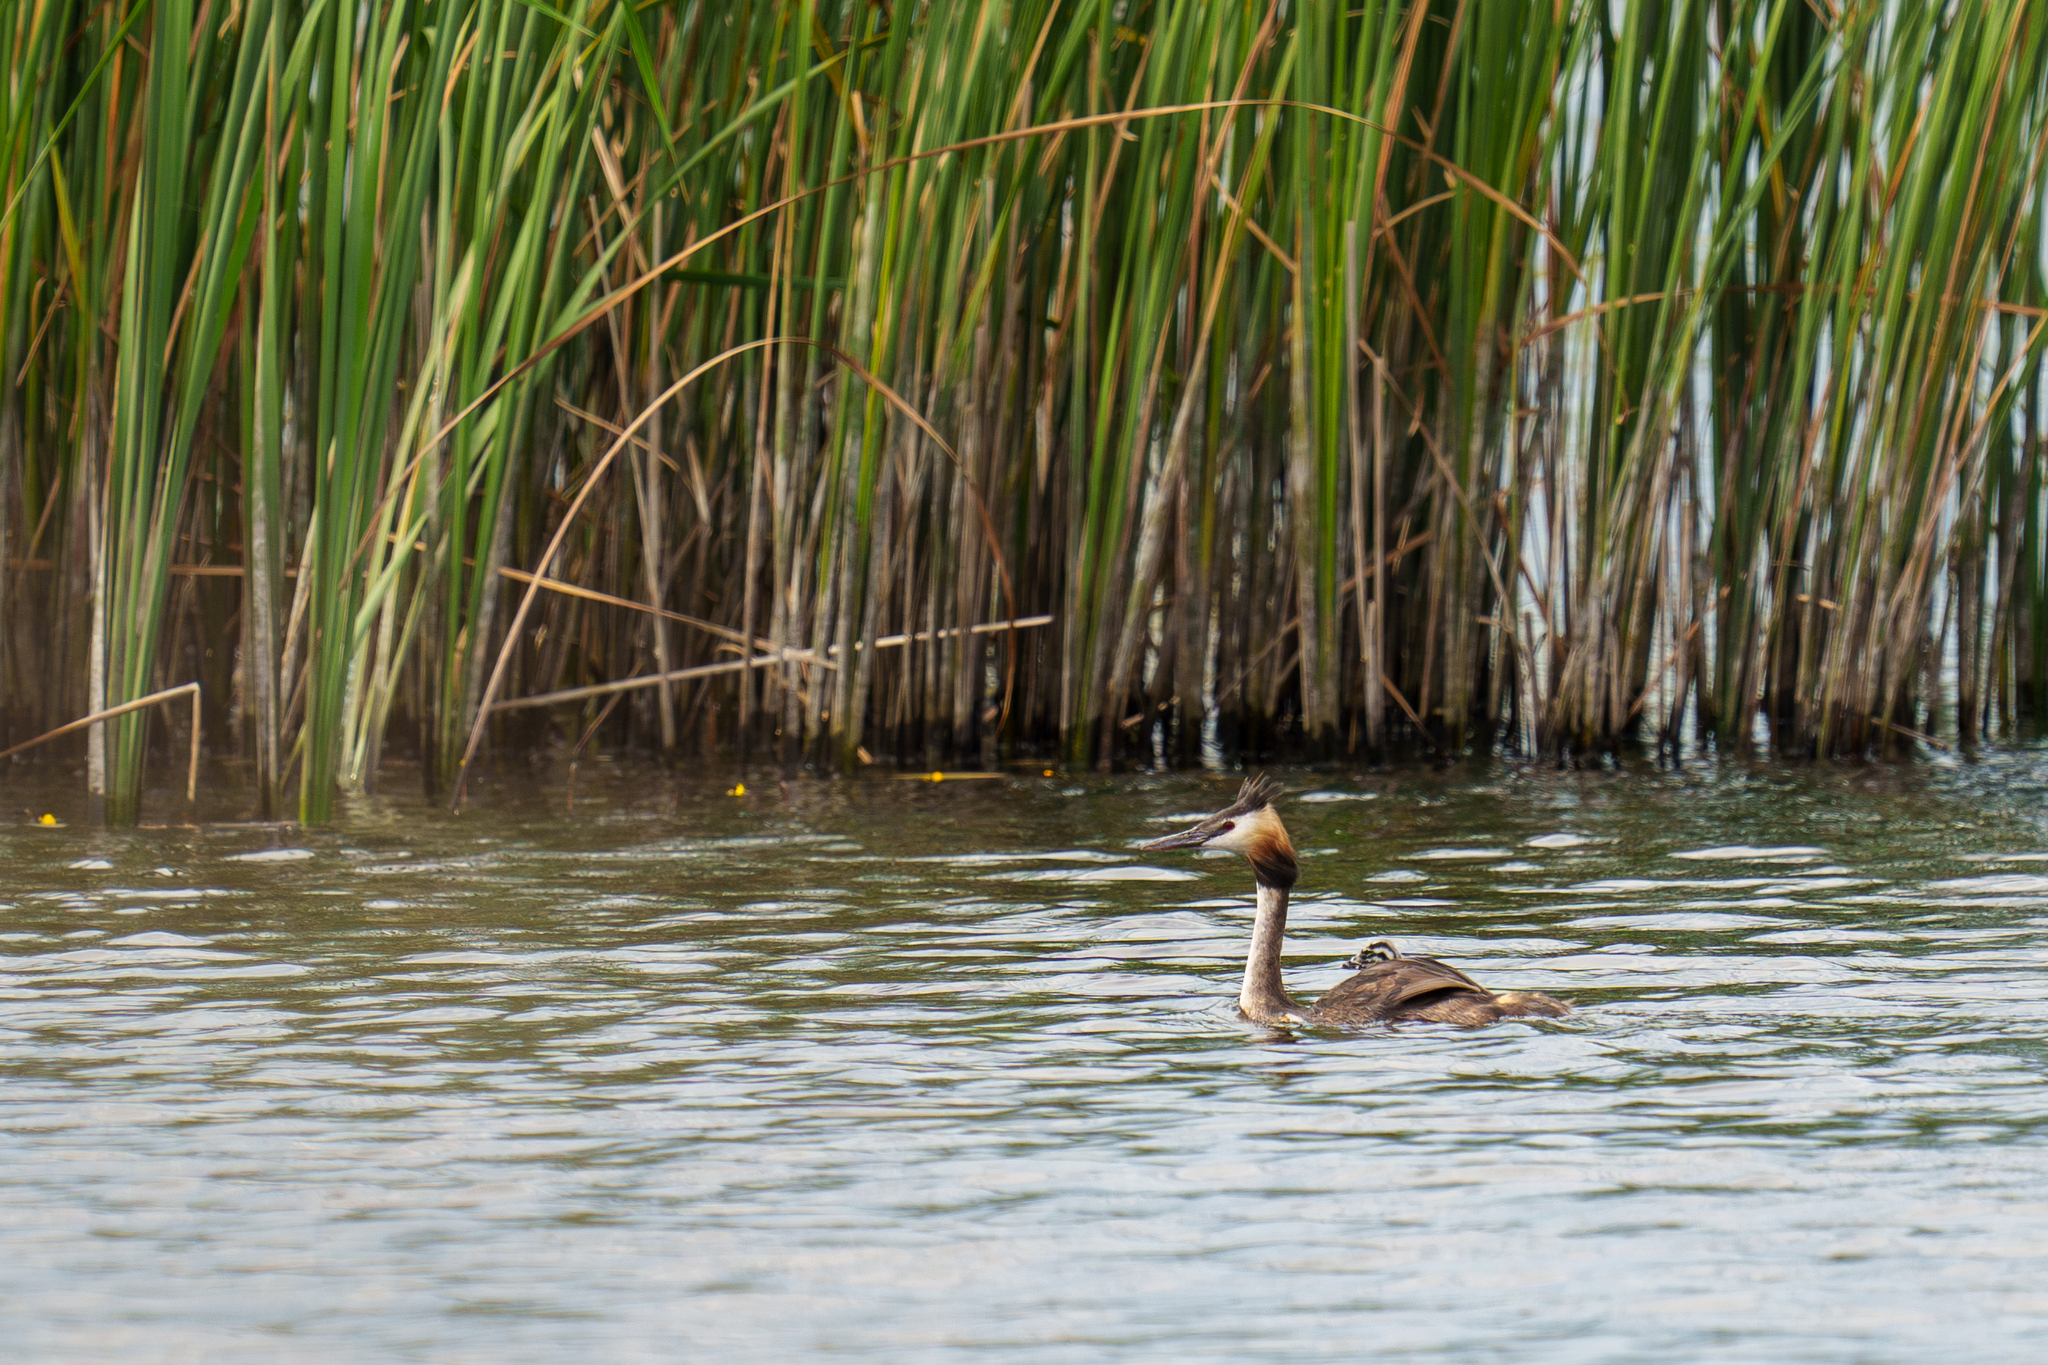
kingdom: Animalia
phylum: Chordata
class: Aves
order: Podicipediformes
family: Podicipedidae
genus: Podiceps
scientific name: Podiceps cristatus
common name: Great crested grebe
